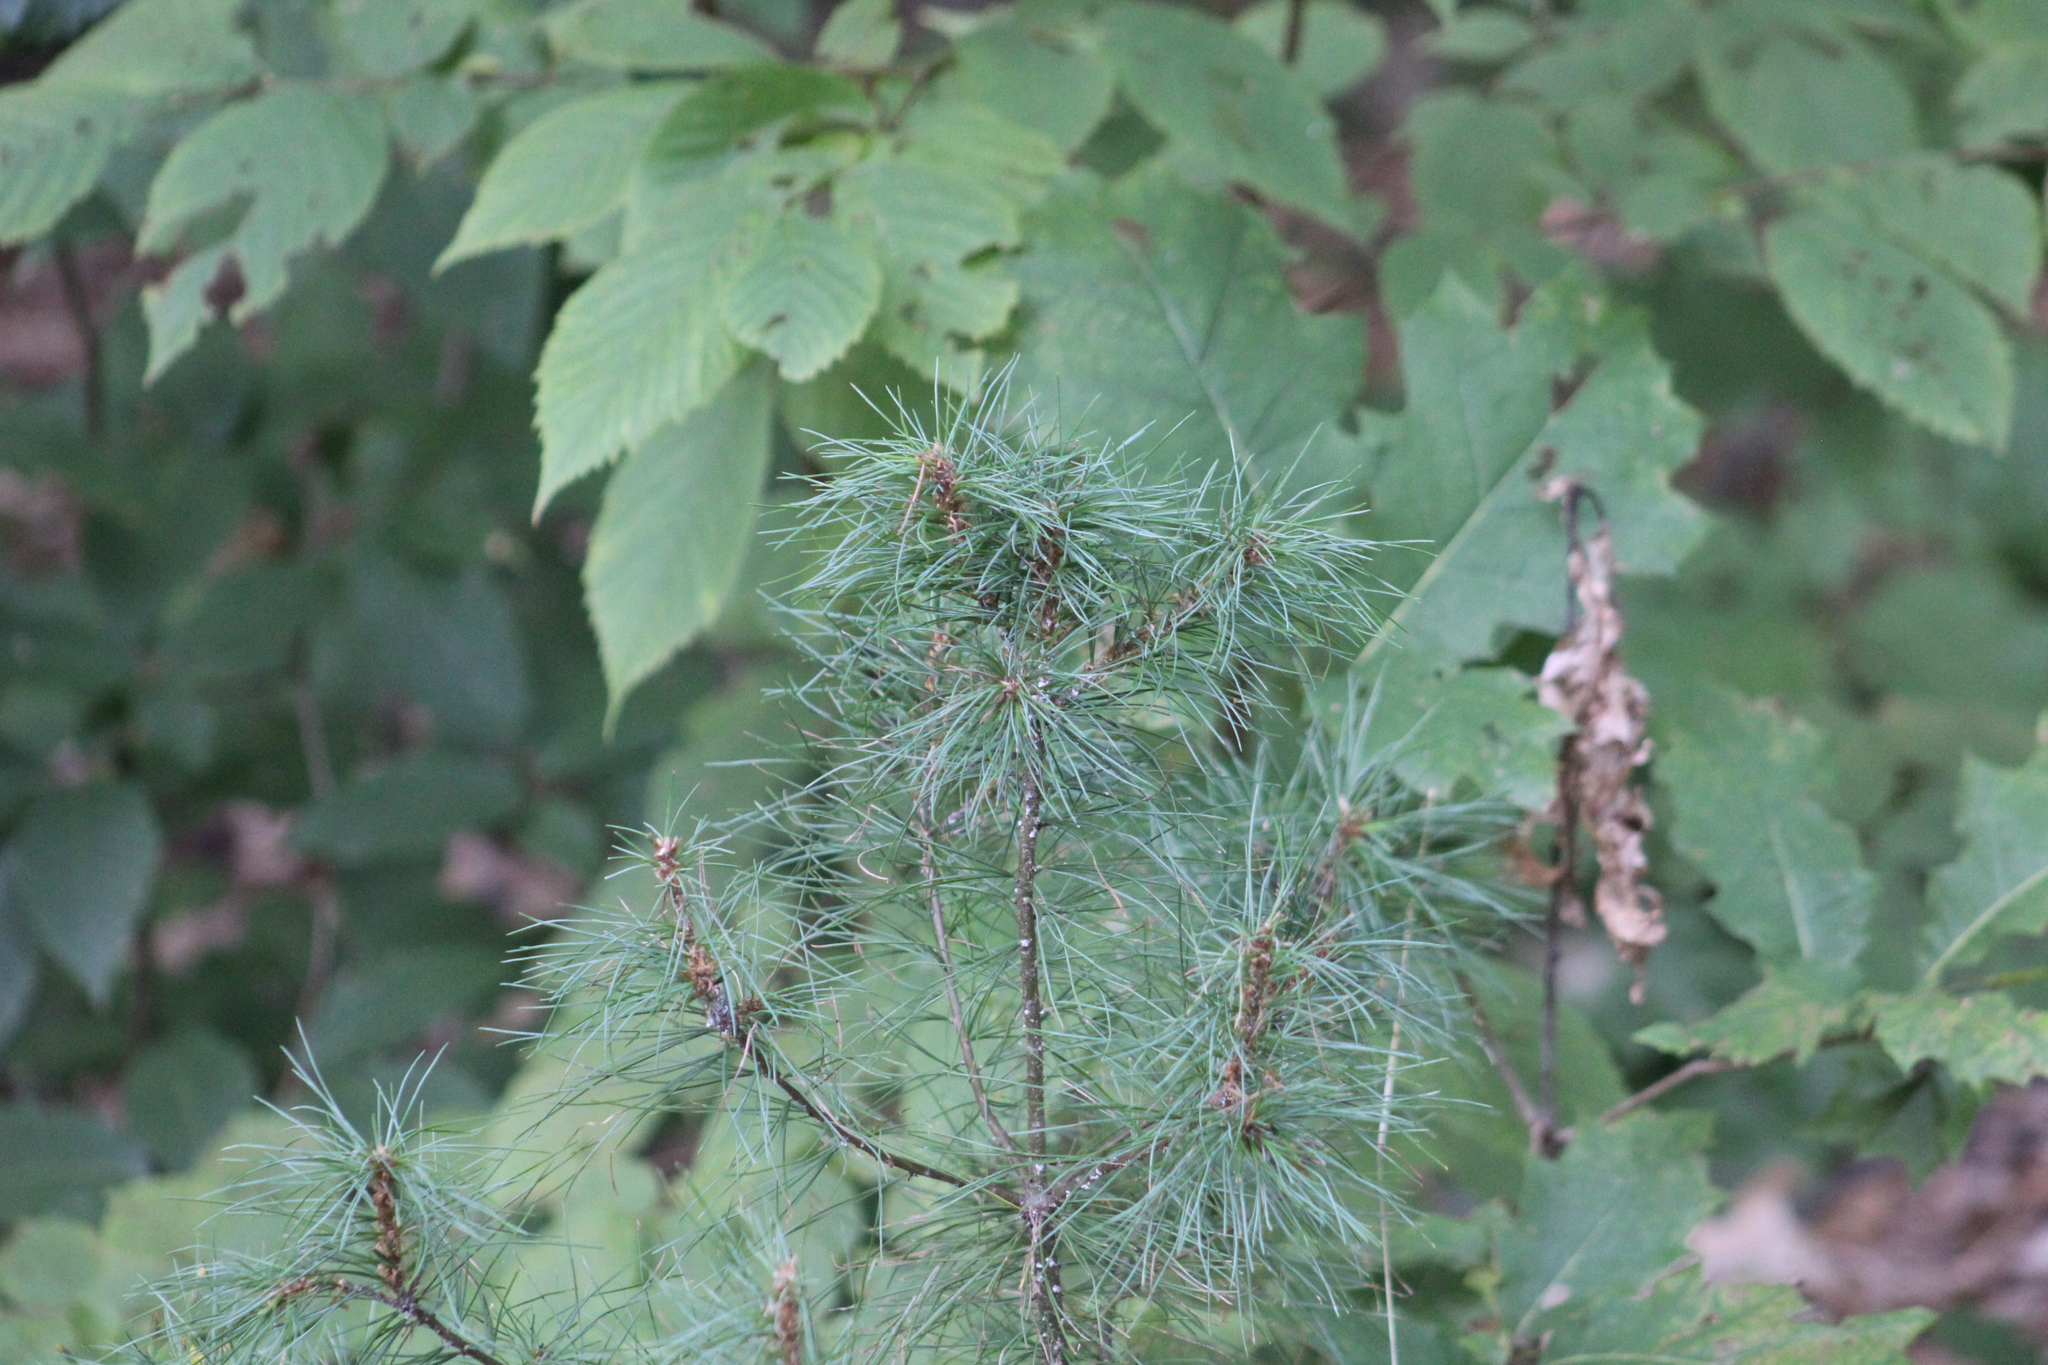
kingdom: Plantae
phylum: Tracheophyta
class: Pinopsida
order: Pinales
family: Pinaceae
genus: Pinus
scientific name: Pinus strobus
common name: Weymouth pine
